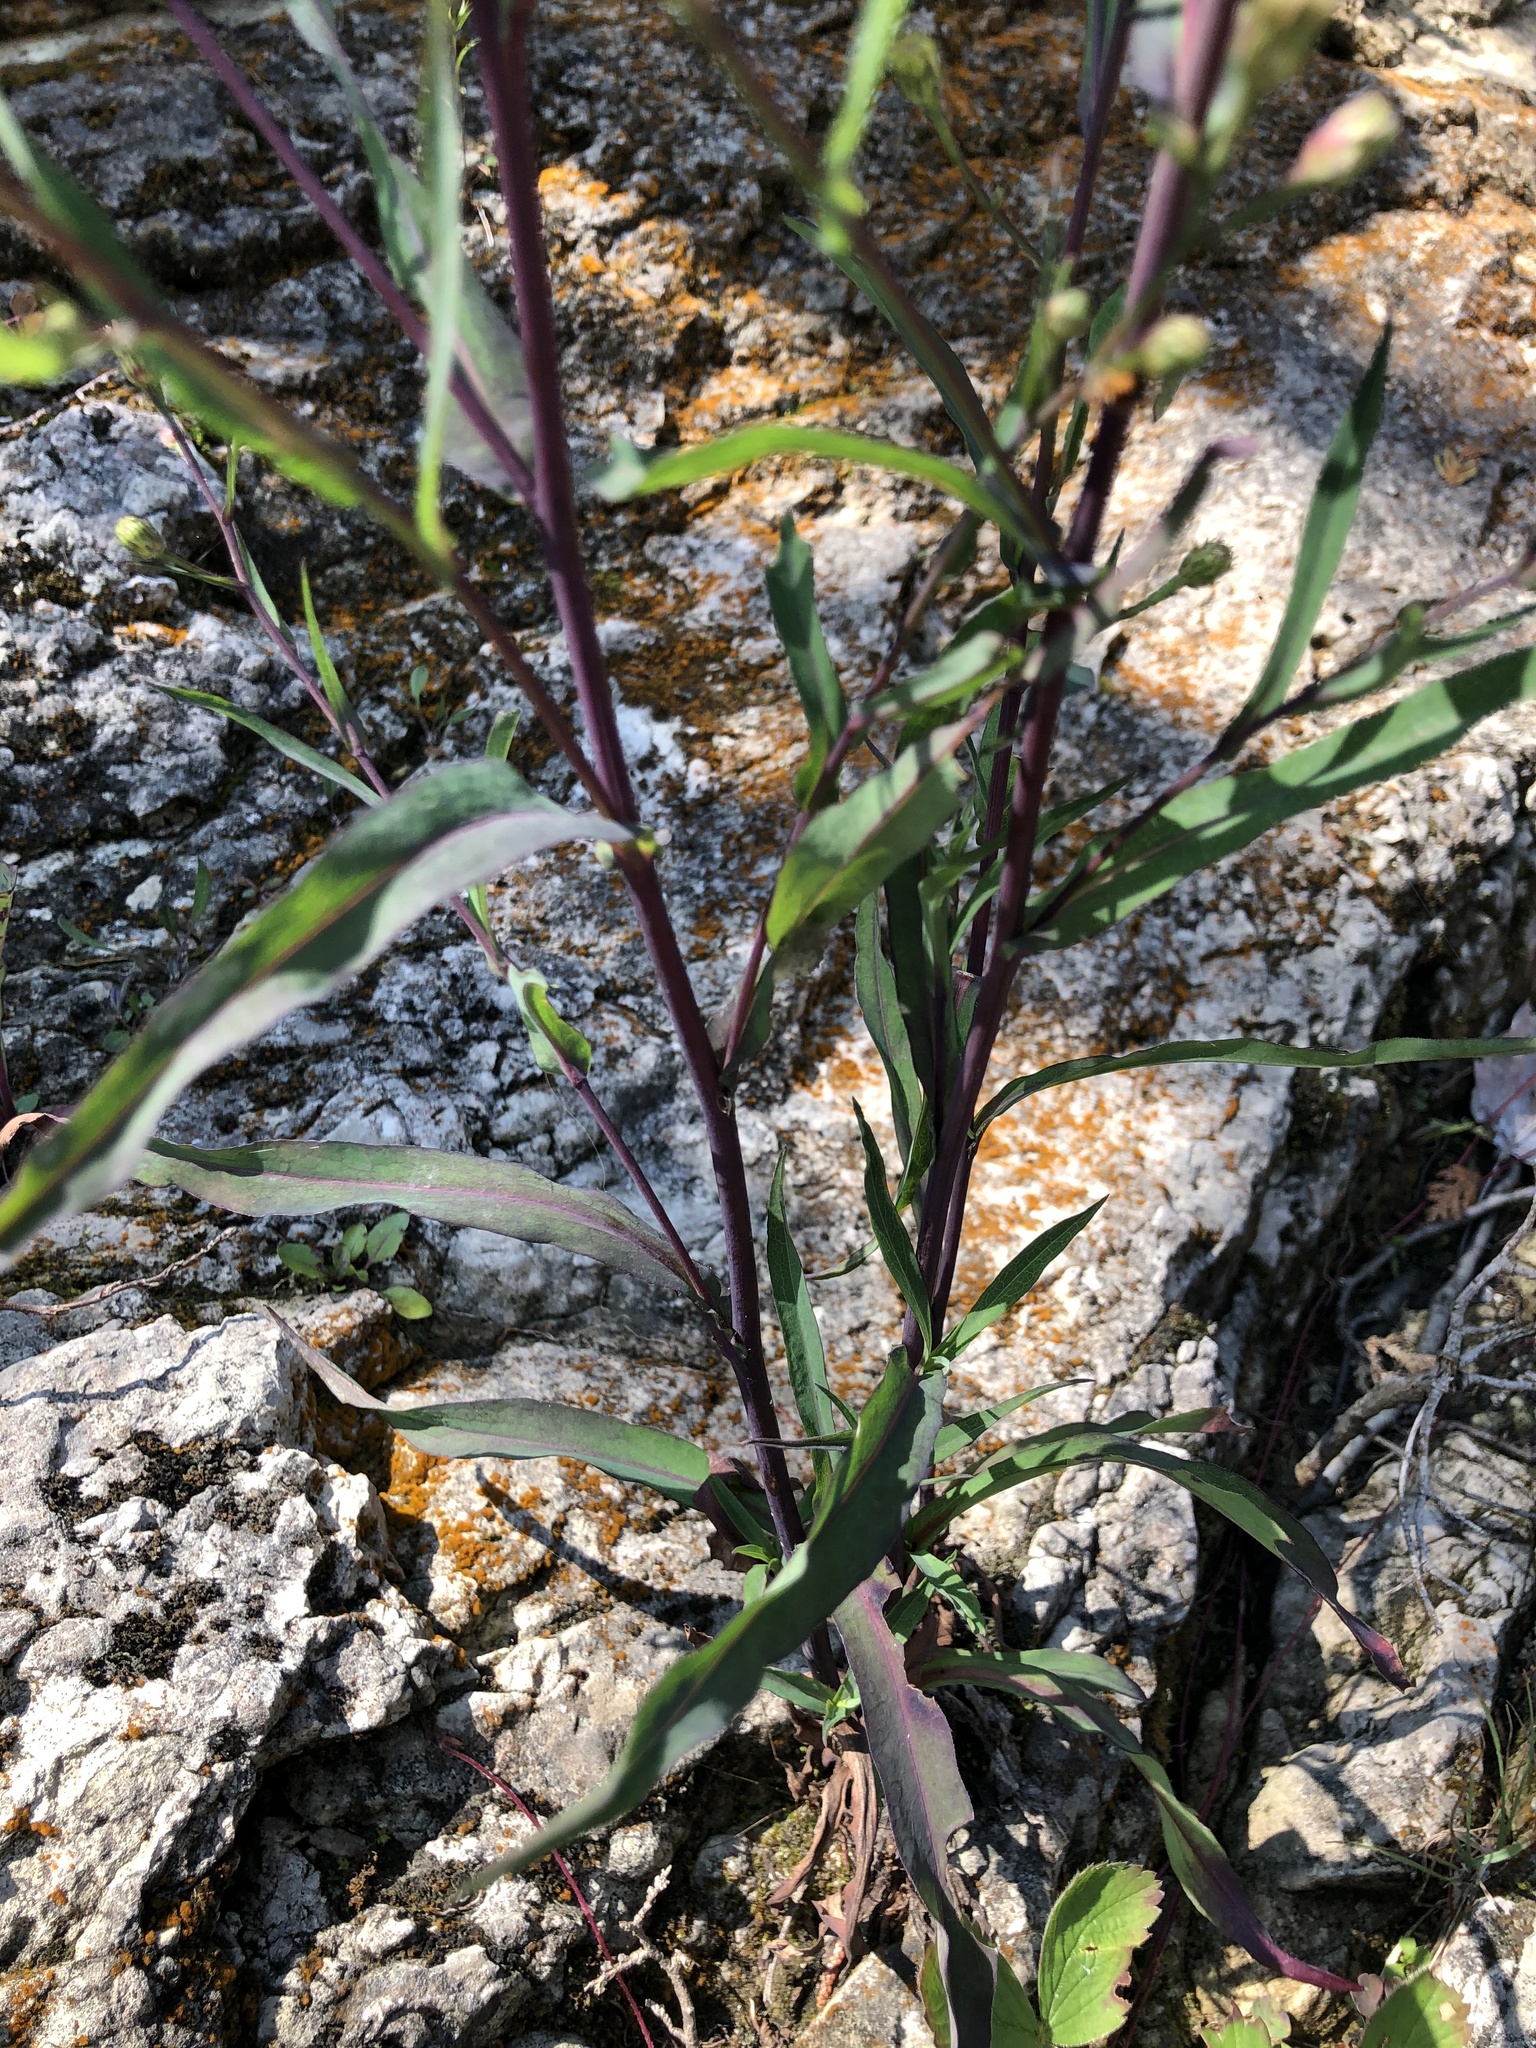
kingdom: Plantae
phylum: Tracheophyta
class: Magnoliopsida
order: Asterales
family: Asteraceae
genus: Symphyotrichum
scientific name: Symphyotrichum laeve
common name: Glaucous aster
